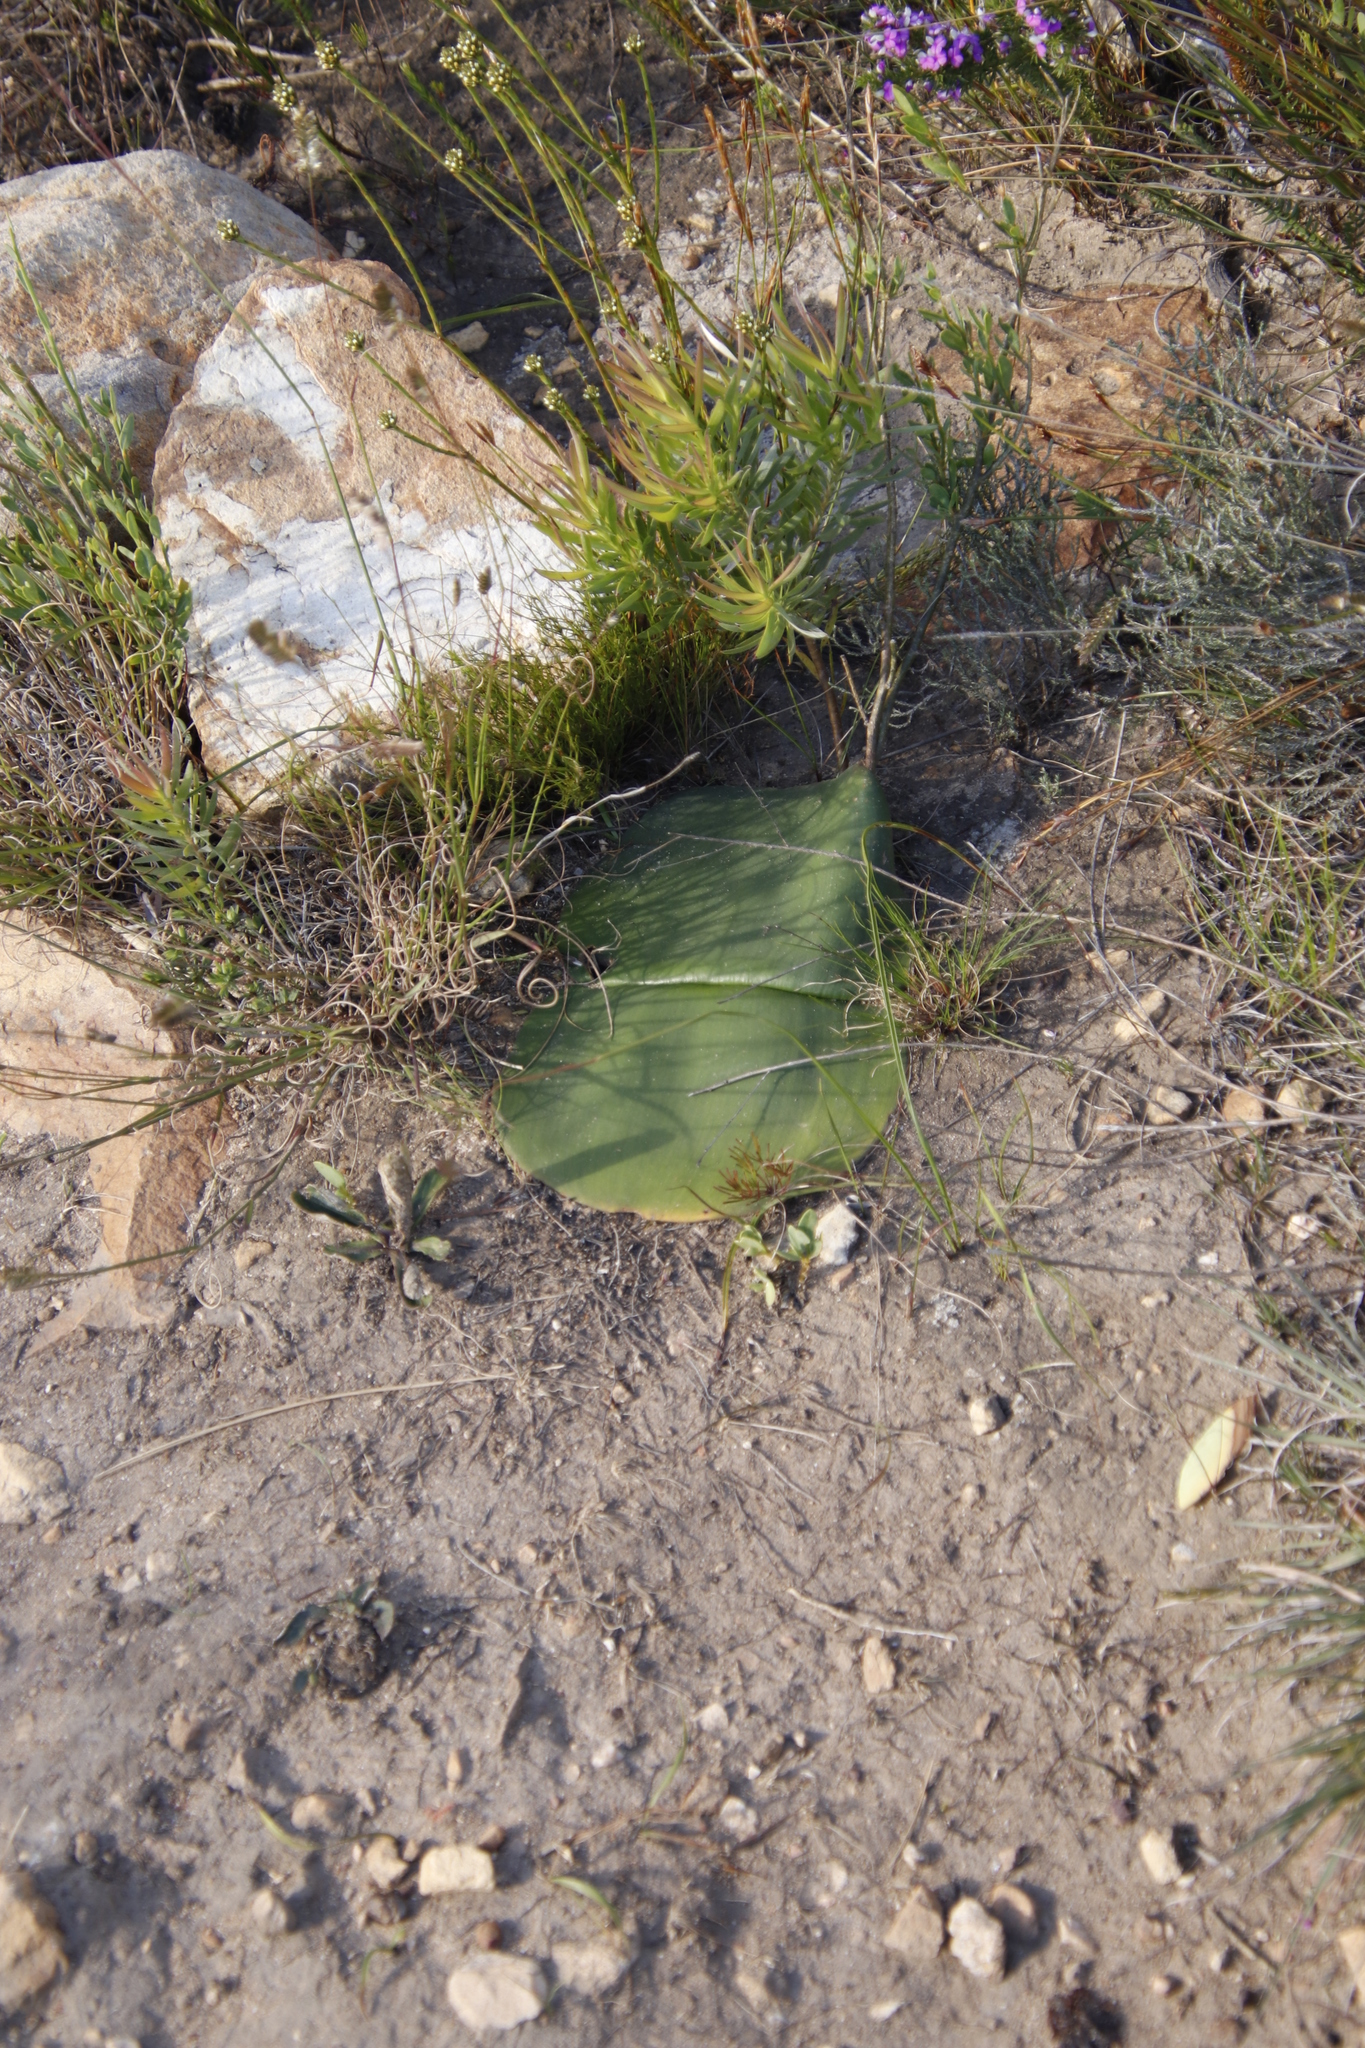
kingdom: Plantae
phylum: Tracheophyta
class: Liliopsida
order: Asparagales
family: Amaryllidaceae
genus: Haemanthus
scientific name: Haemanthus sanguineus
